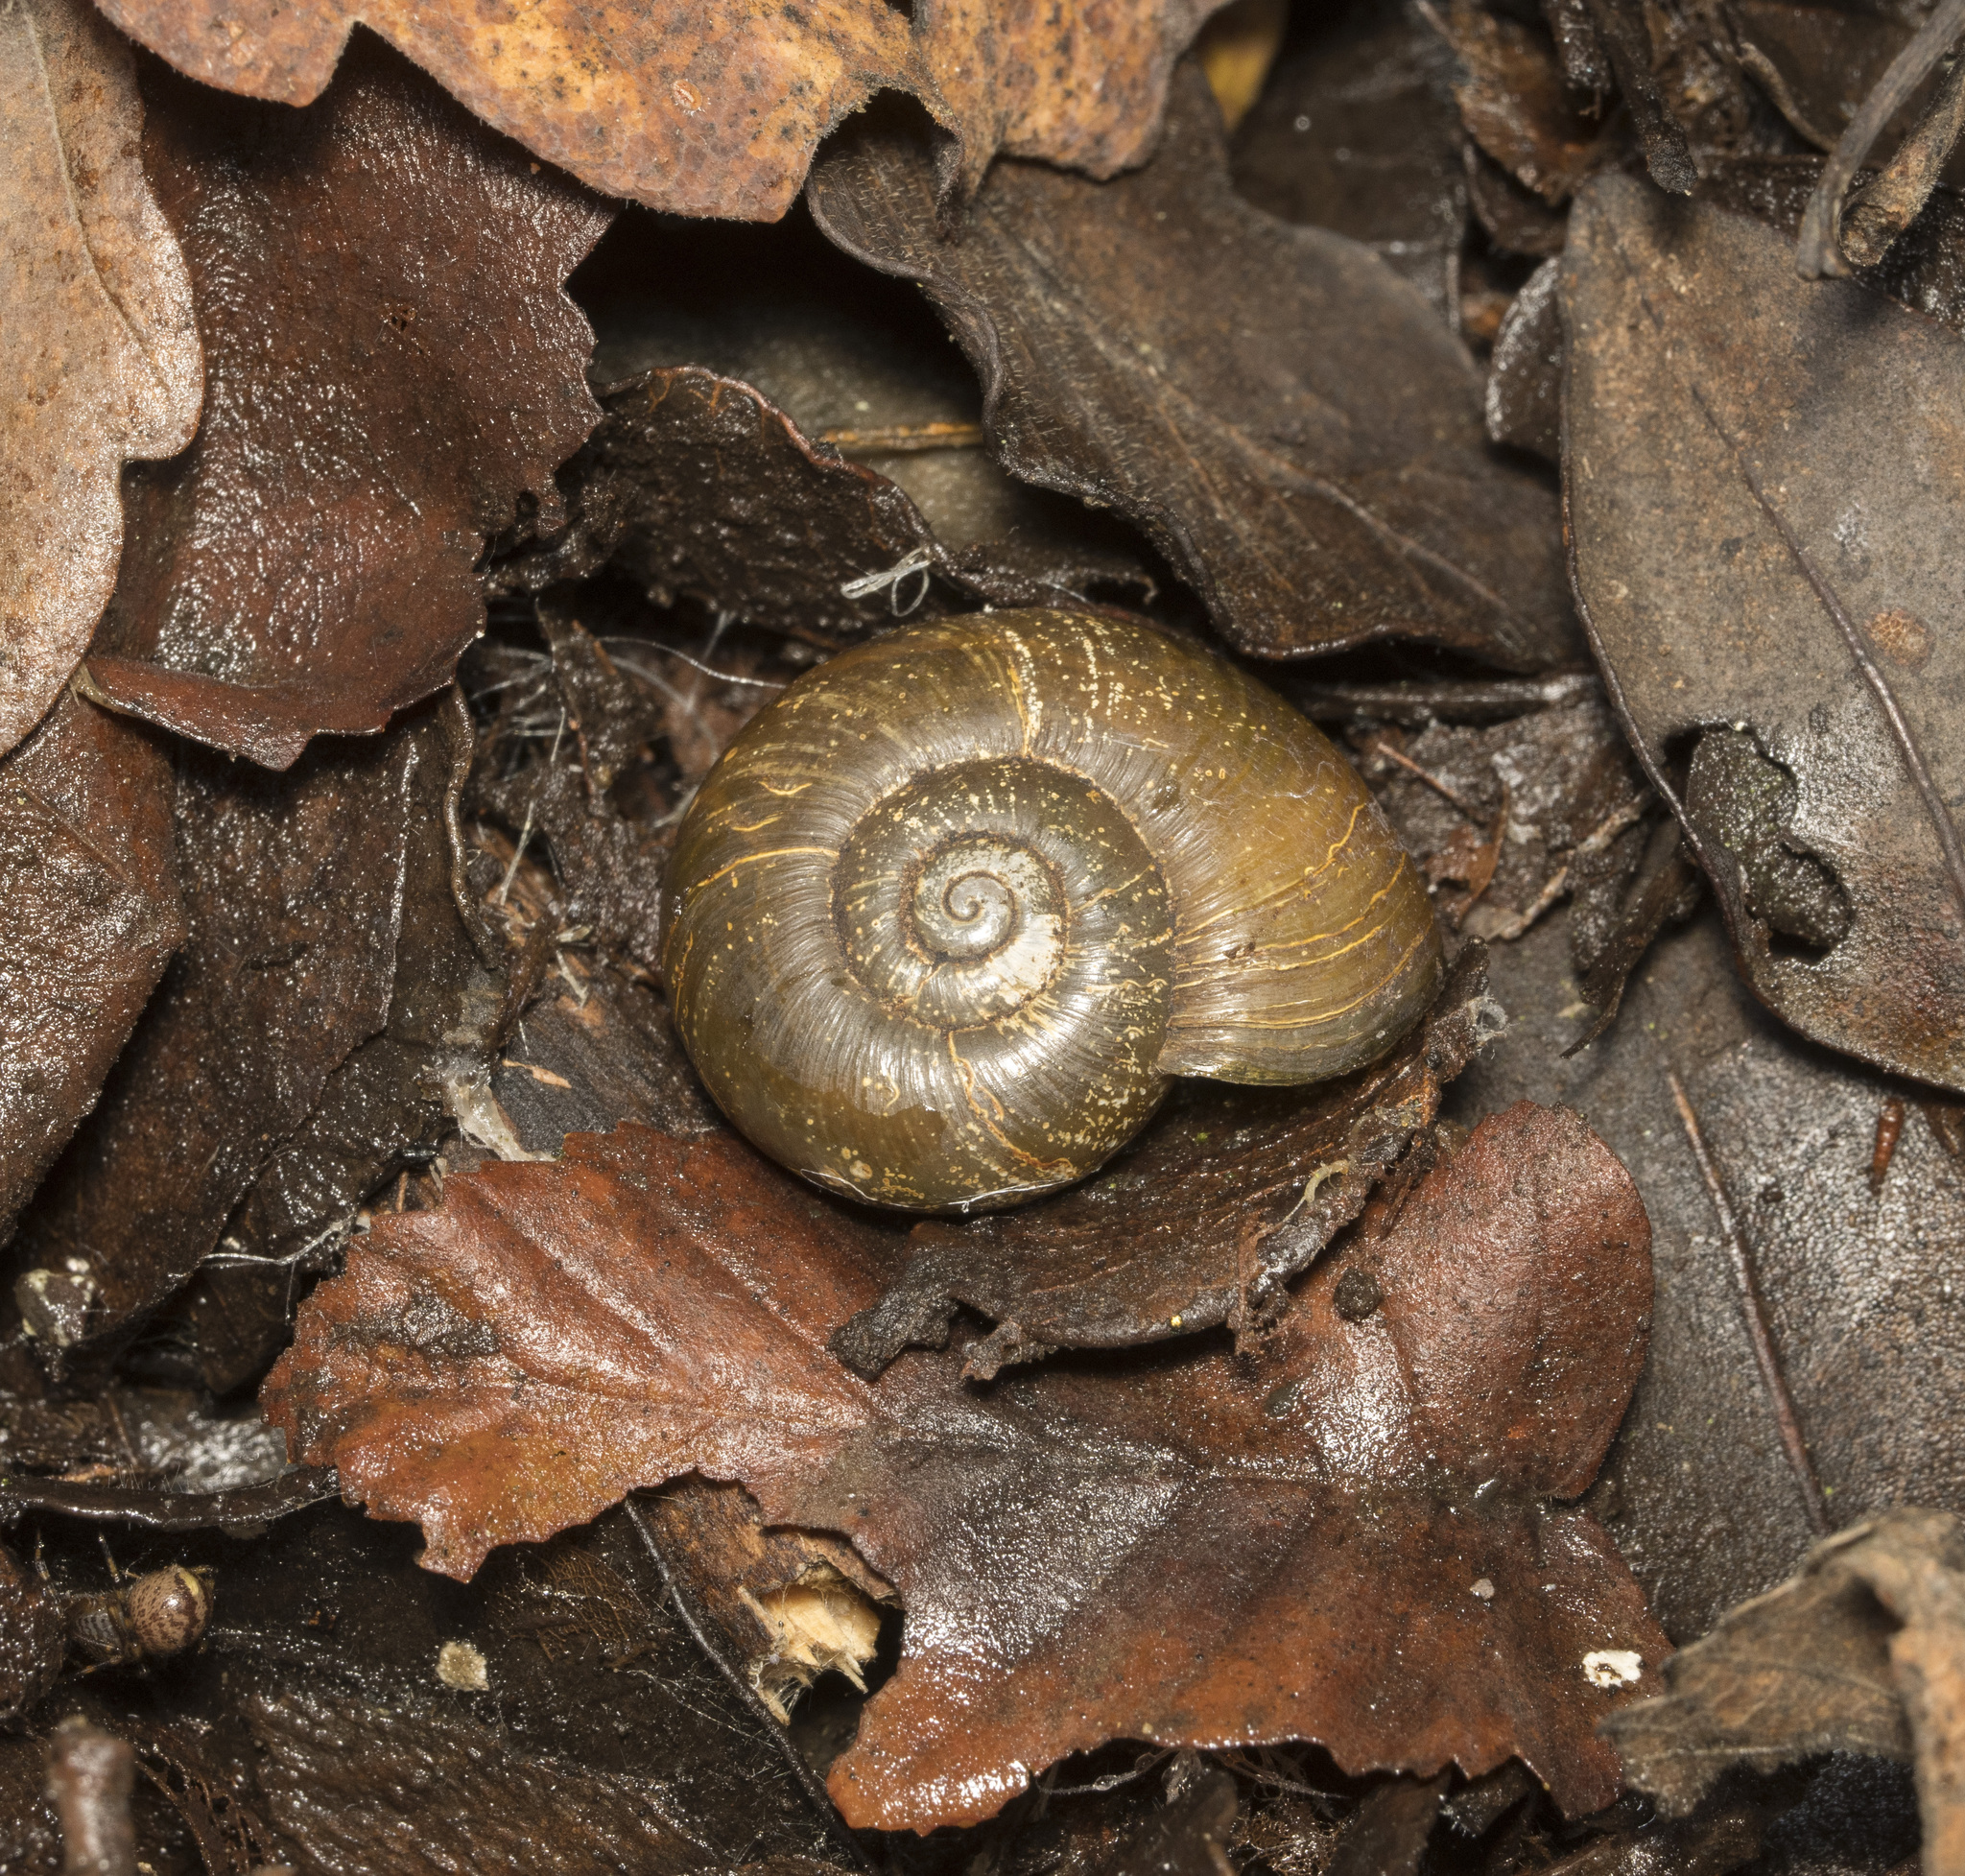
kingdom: Animalia
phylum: Mollusca
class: Gastropoda
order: Stylommatophora
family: Macrocyclidae
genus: Macrocyclis
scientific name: Macrocyclis peruvianus
